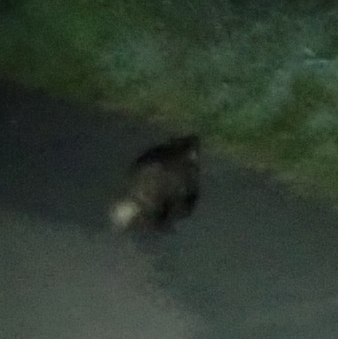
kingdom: Animalia
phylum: Chordata
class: Mammalia
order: Carnivora
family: Mustelidae
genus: Meles
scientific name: Meles meles
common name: Eurasian badger
